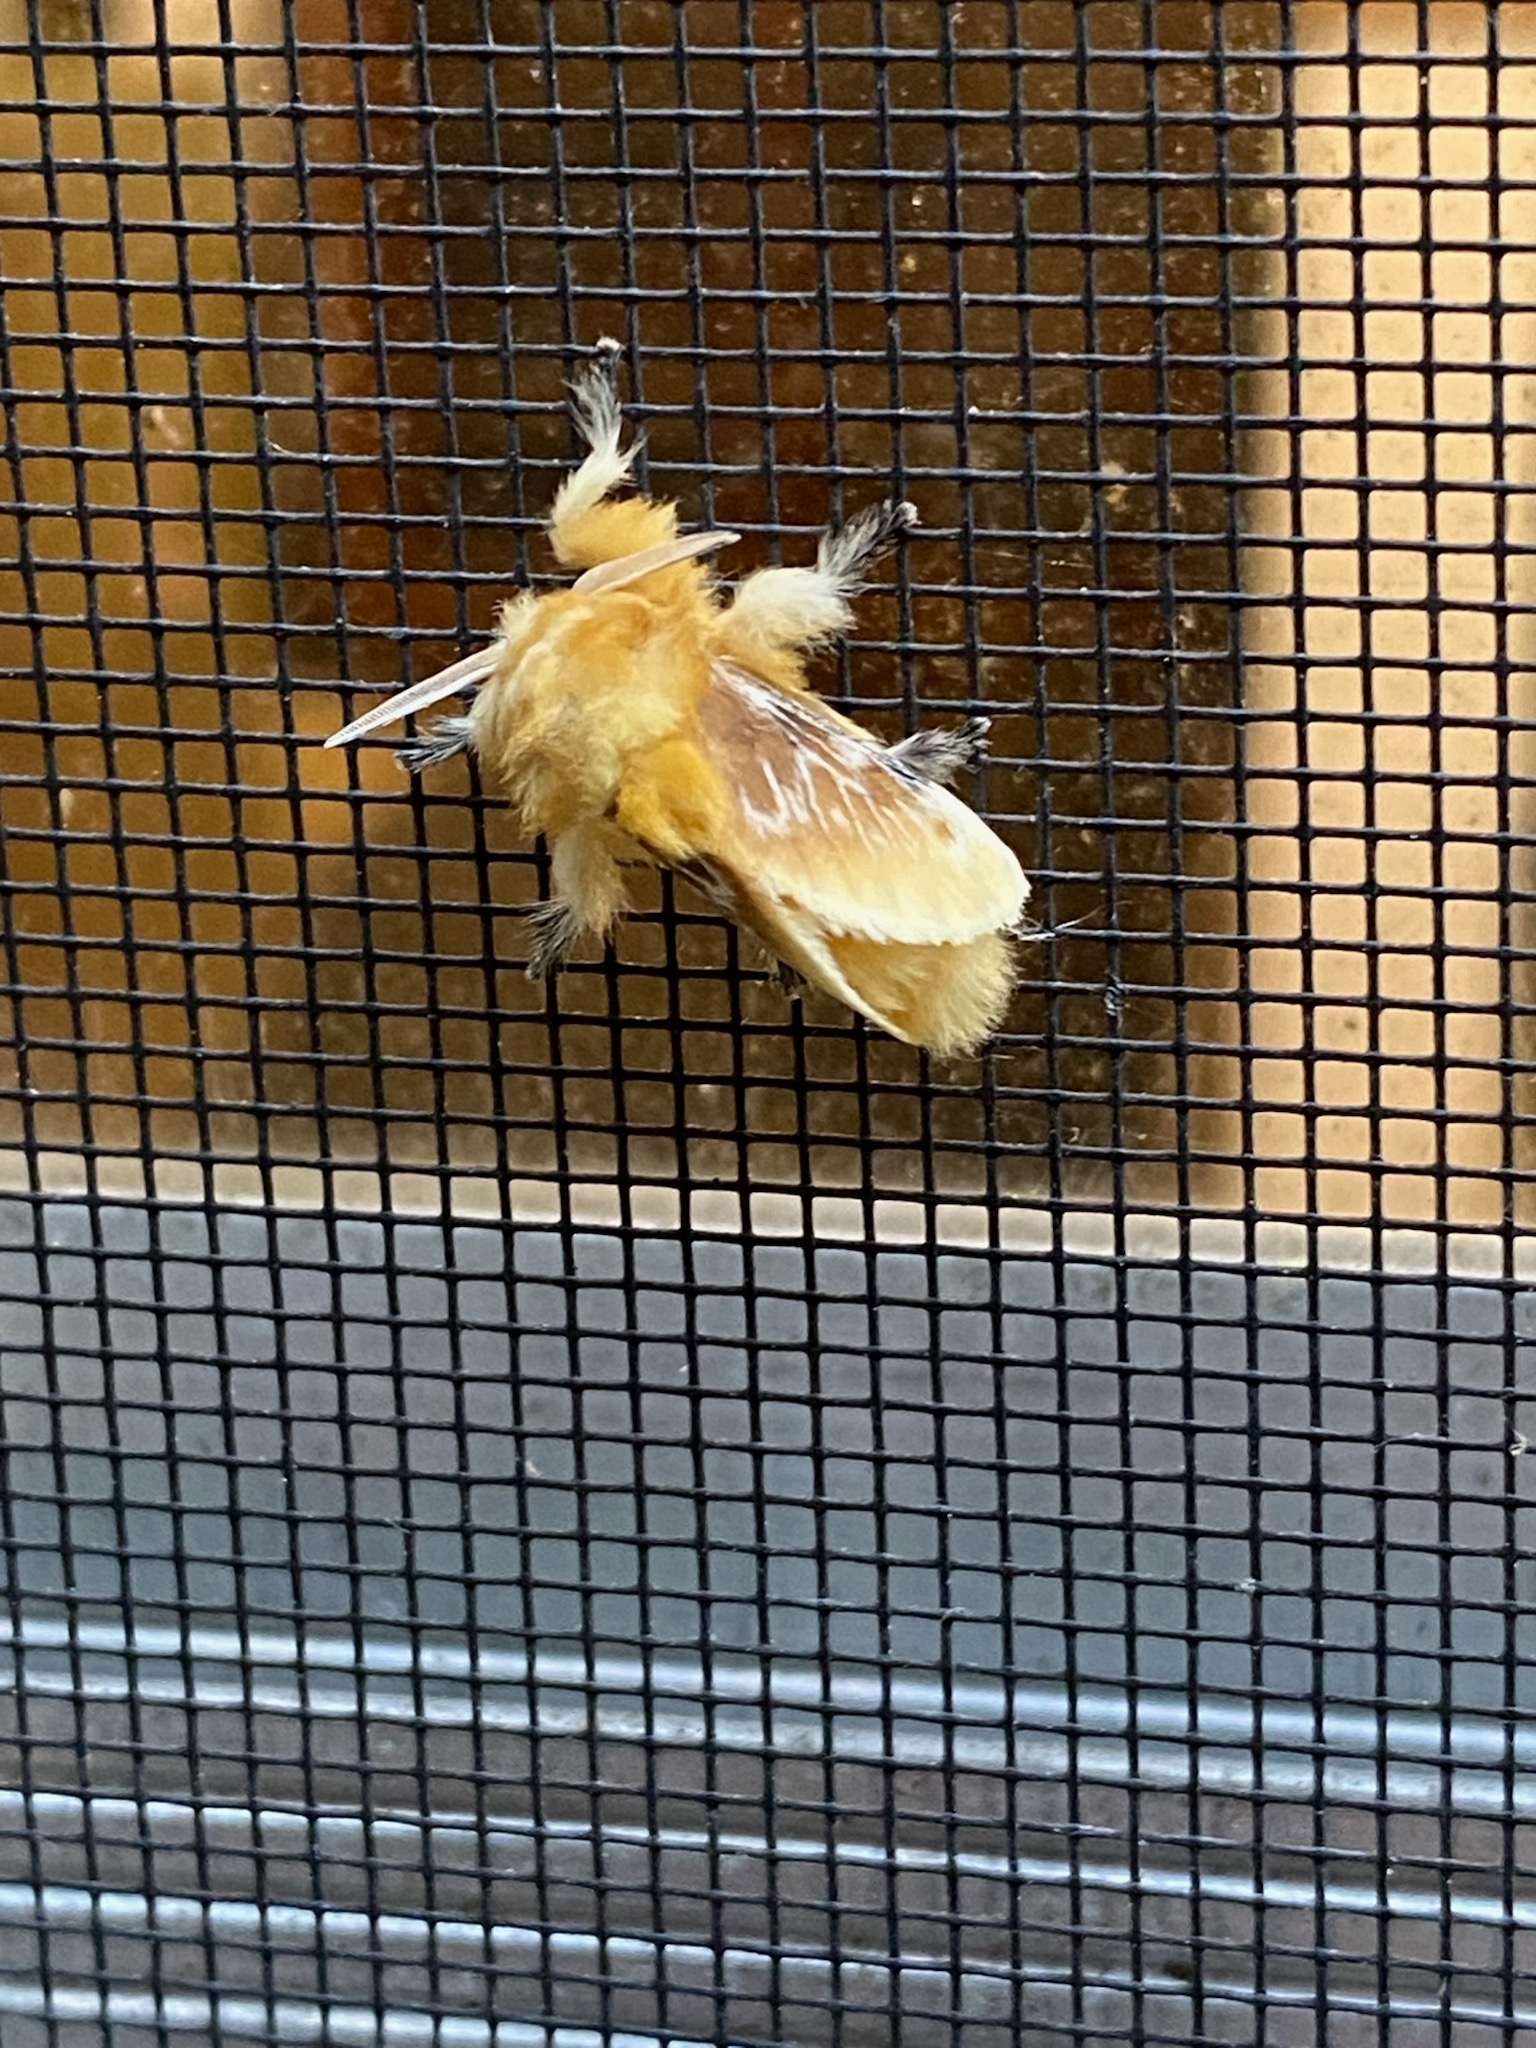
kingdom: Animalia
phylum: Arthropoda
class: Insecta
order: Lepidoptera
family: Megalopygidae
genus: Megalopyge
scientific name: Megalopyge opercularis
